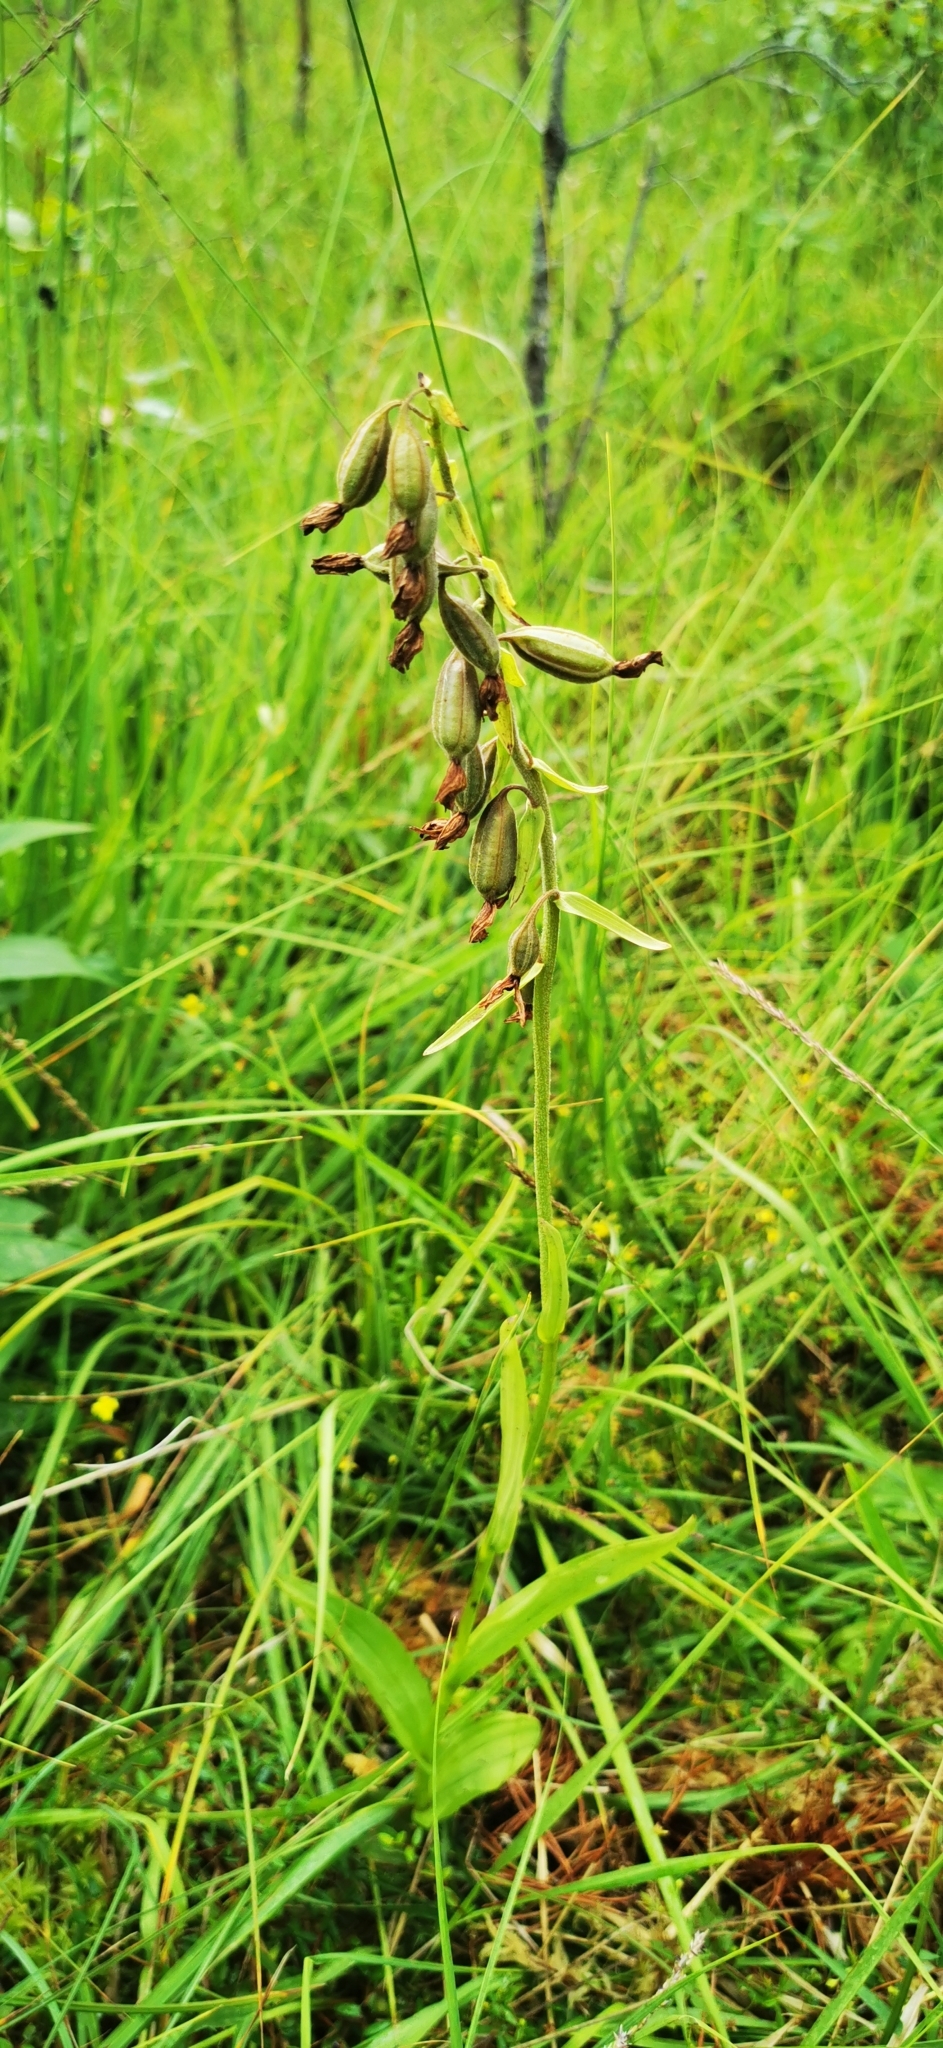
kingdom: Plantae
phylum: Tracheophyta
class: Liliopsida
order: Asparagales
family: Orchidaceae
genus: Epipactis
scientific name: Epipactis palustris
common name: Marsh helleborine
